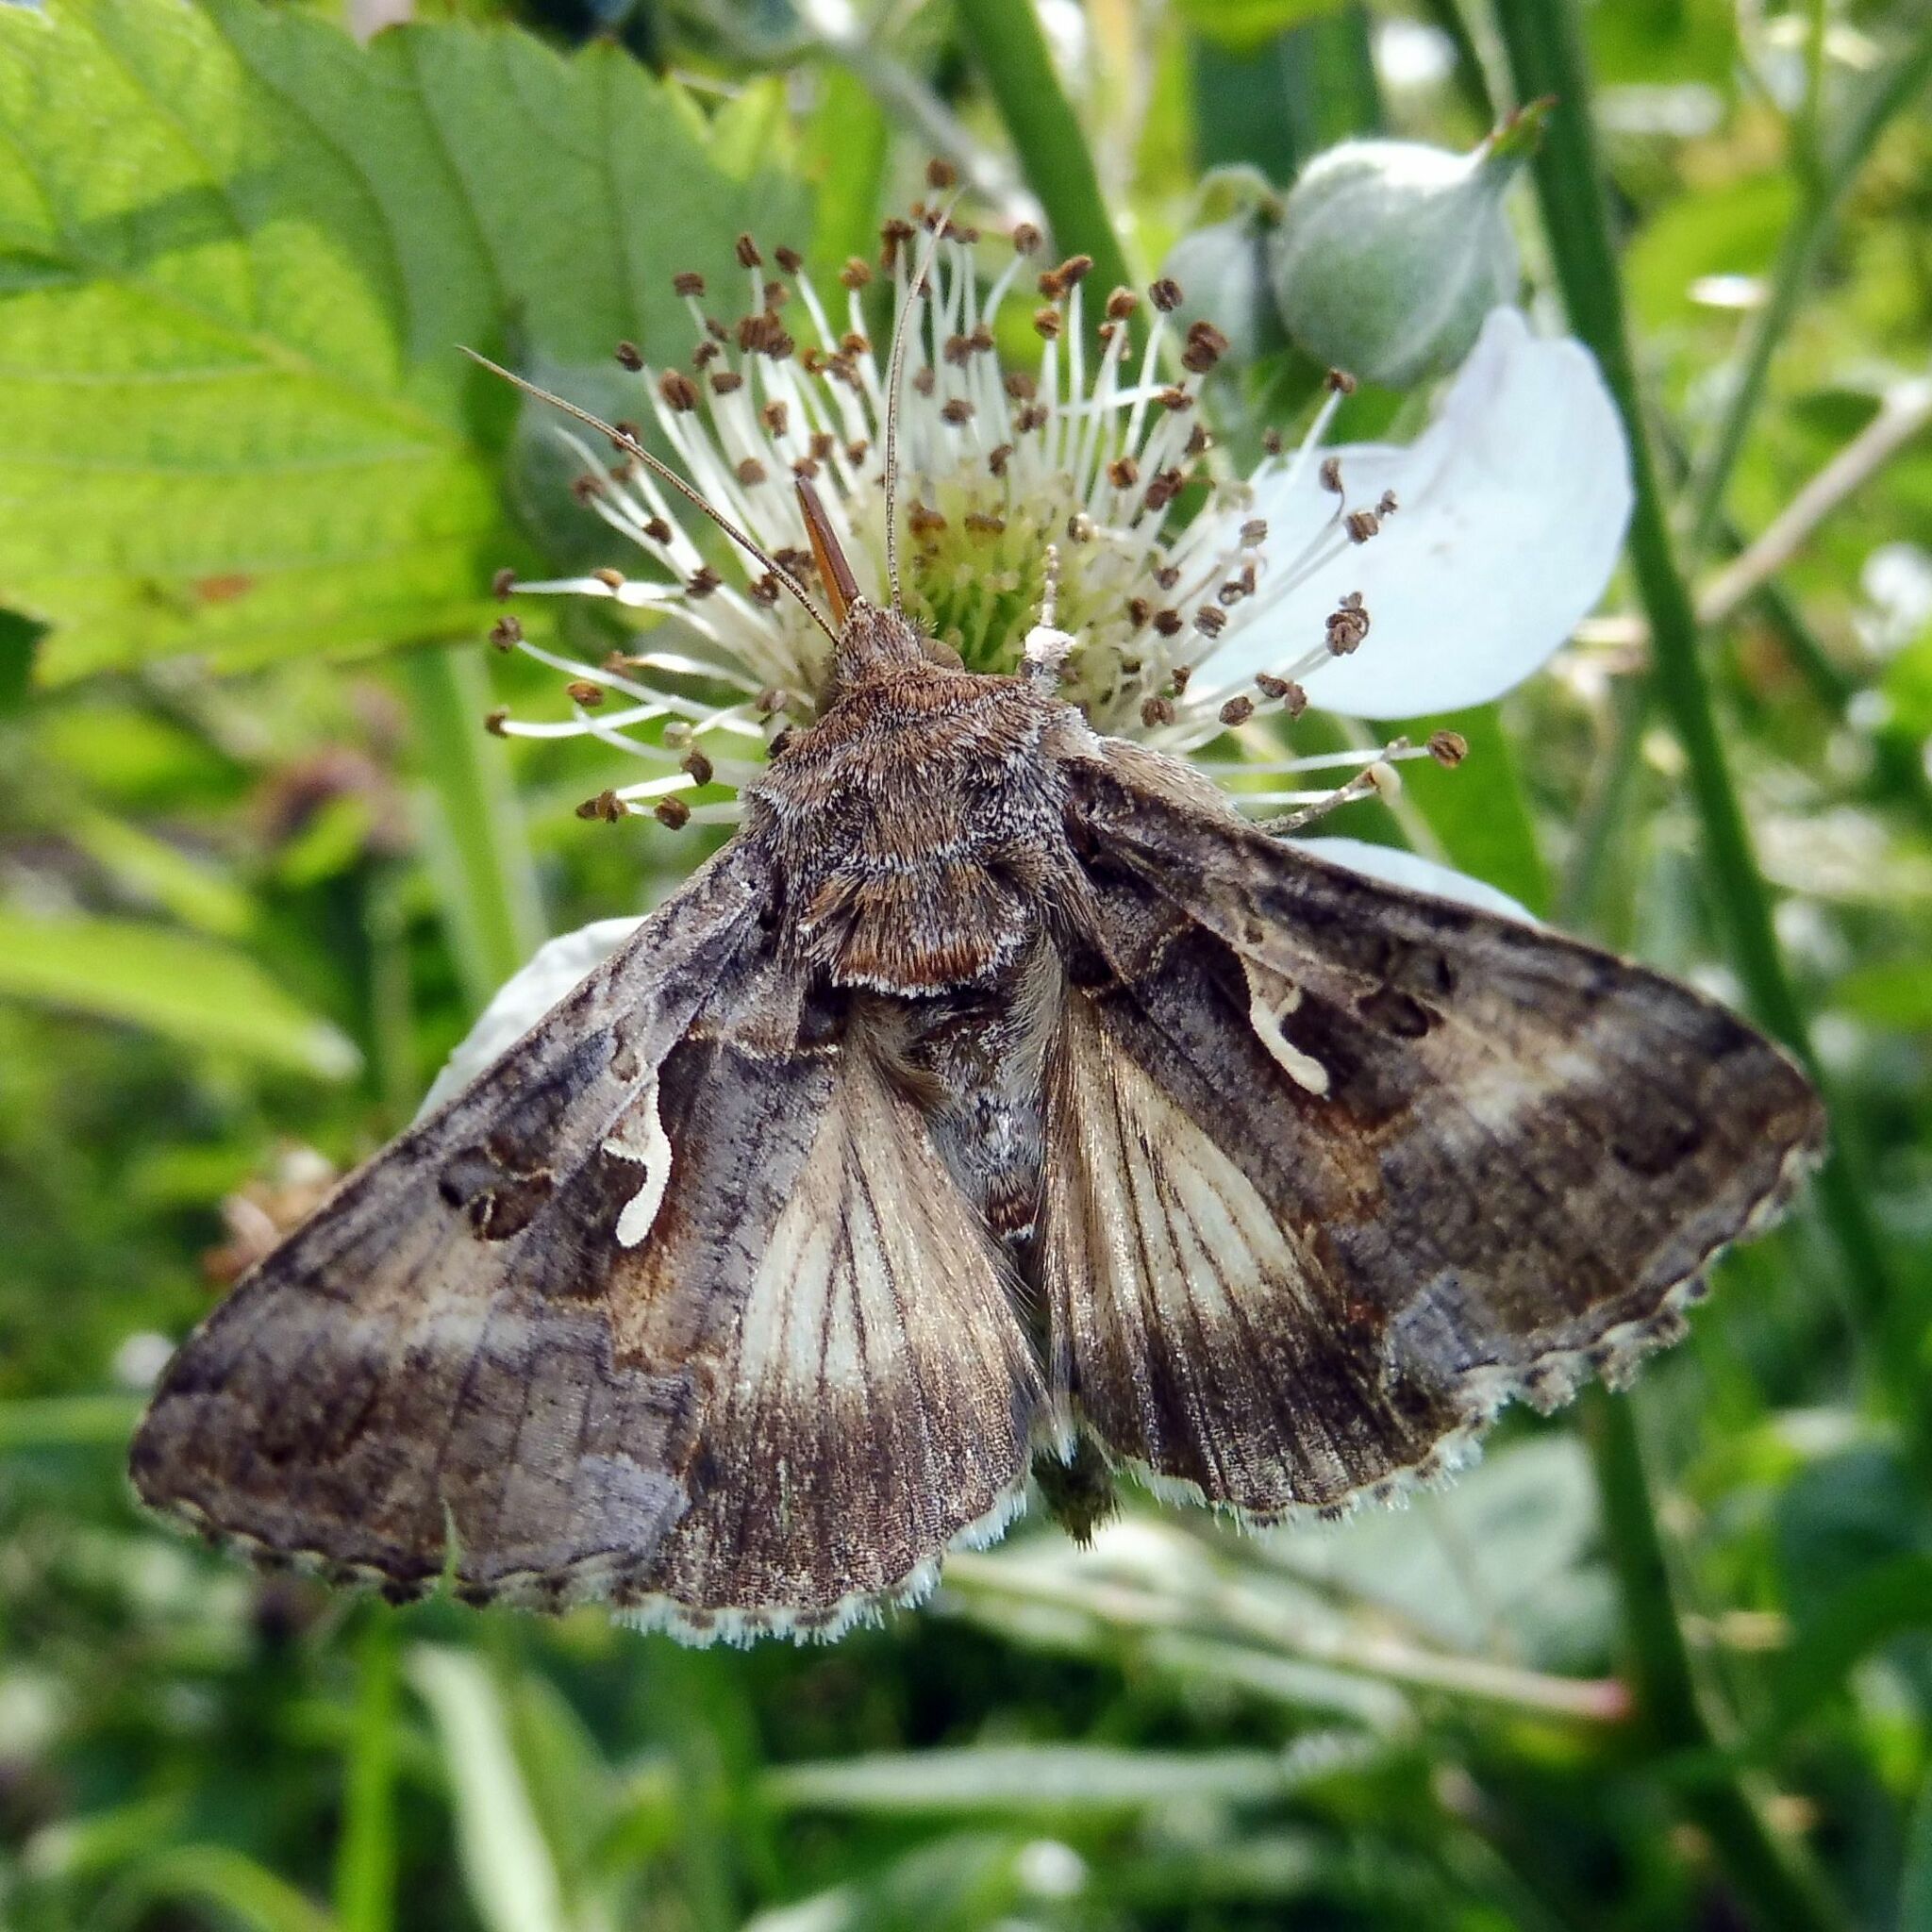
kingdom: Animalia
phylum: Arthropoda
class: Insecta
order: Lepidoptera
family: Noctuidae
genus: Autographa
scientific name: Autographa gamma
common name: Silver y
